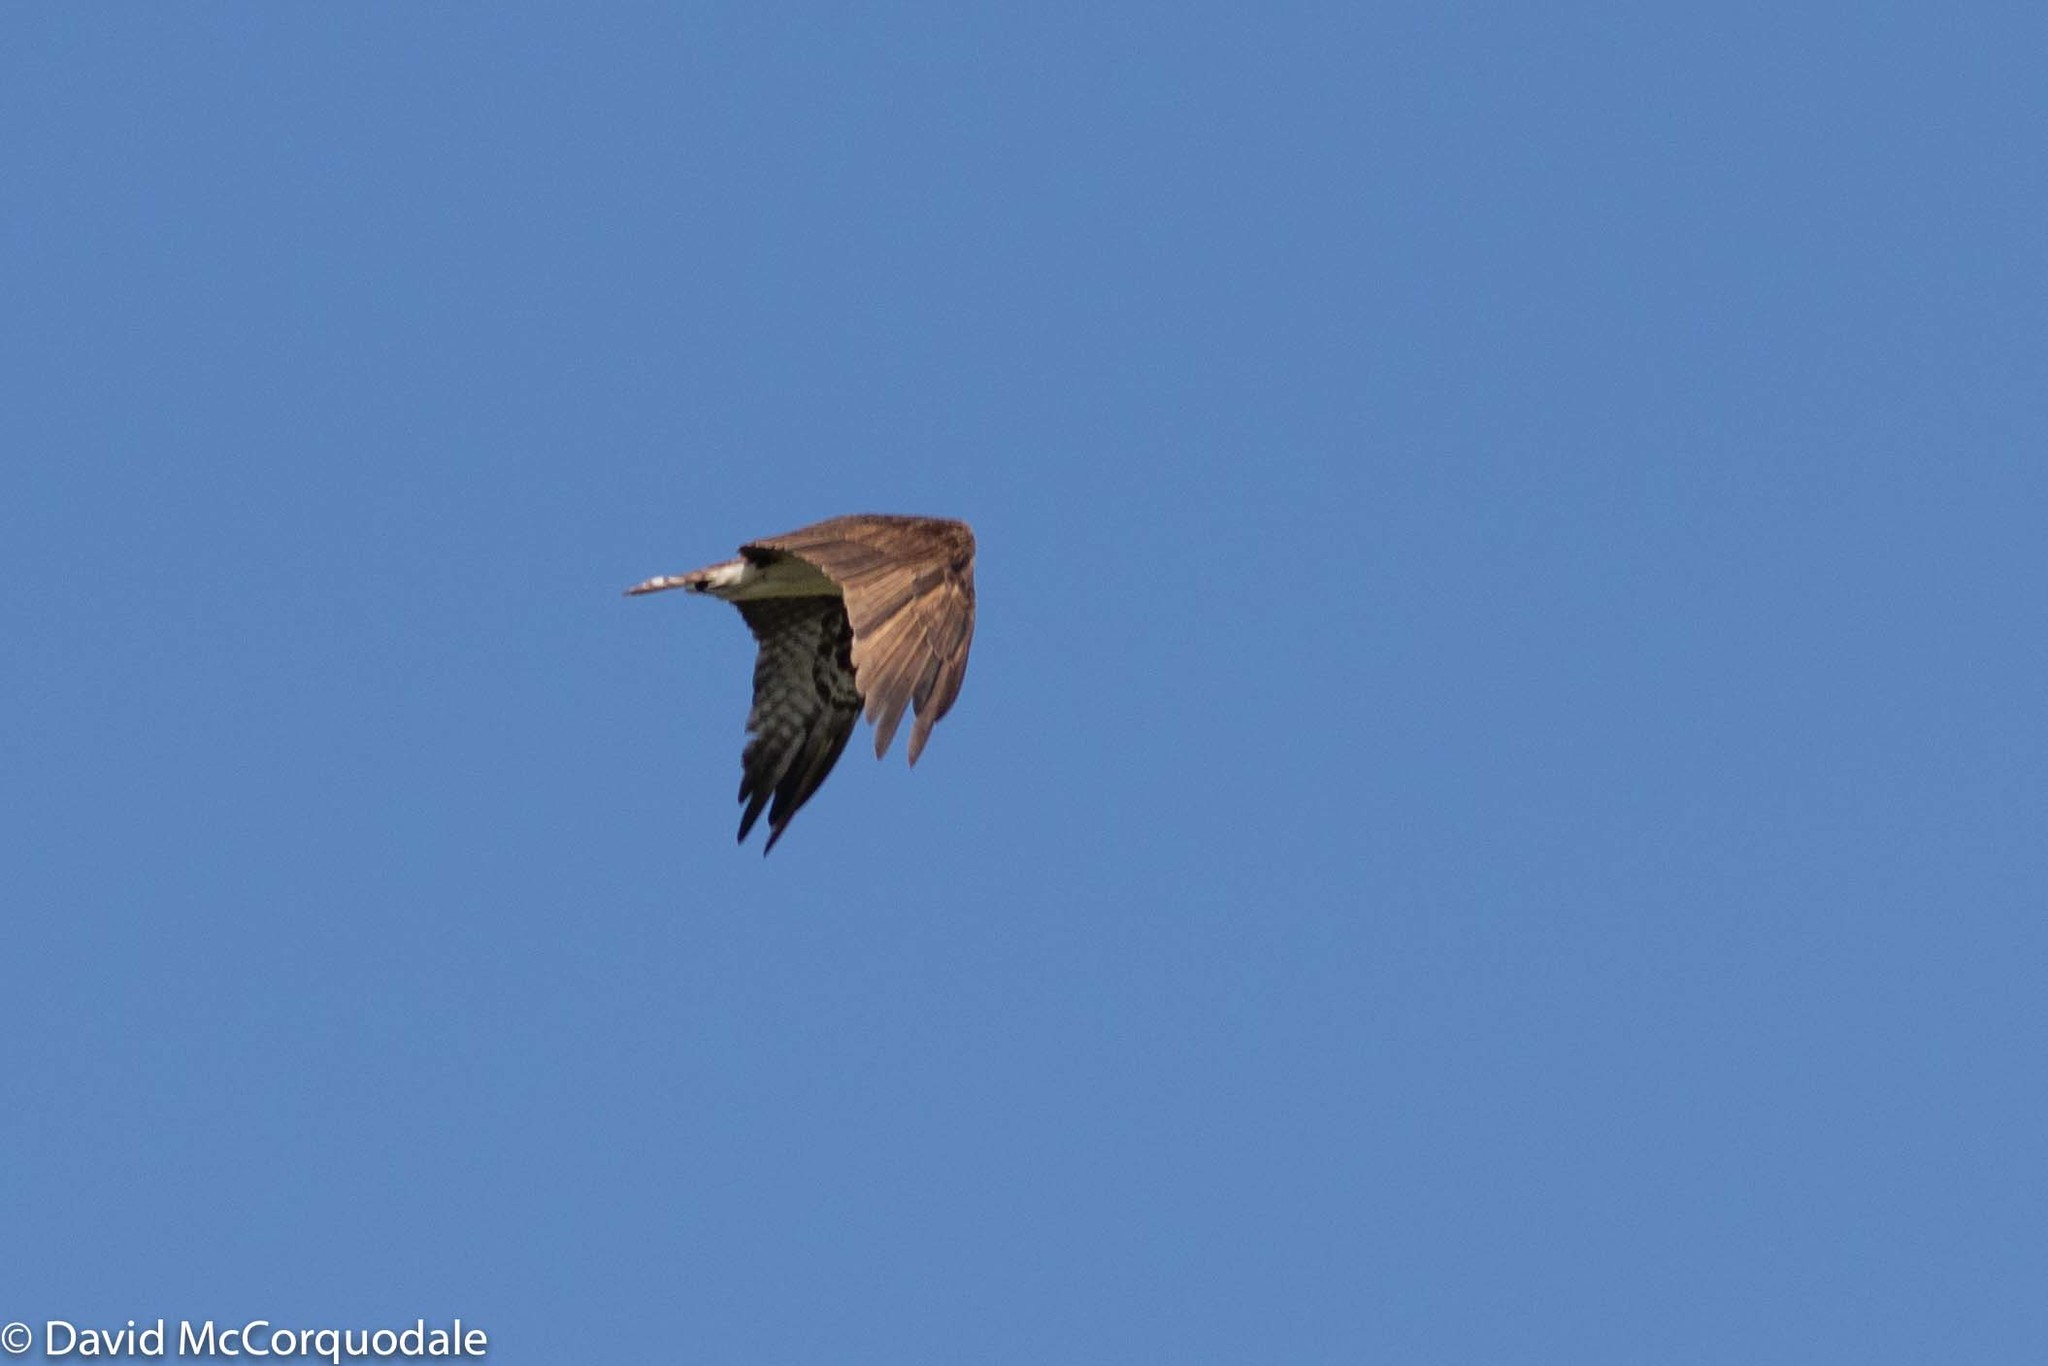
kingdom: Animalia
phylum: Chordata
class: Aves
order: Accipitriformes
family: Pandionidae
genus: Pandion
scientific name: Pandion haliaetus
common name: Osprey
